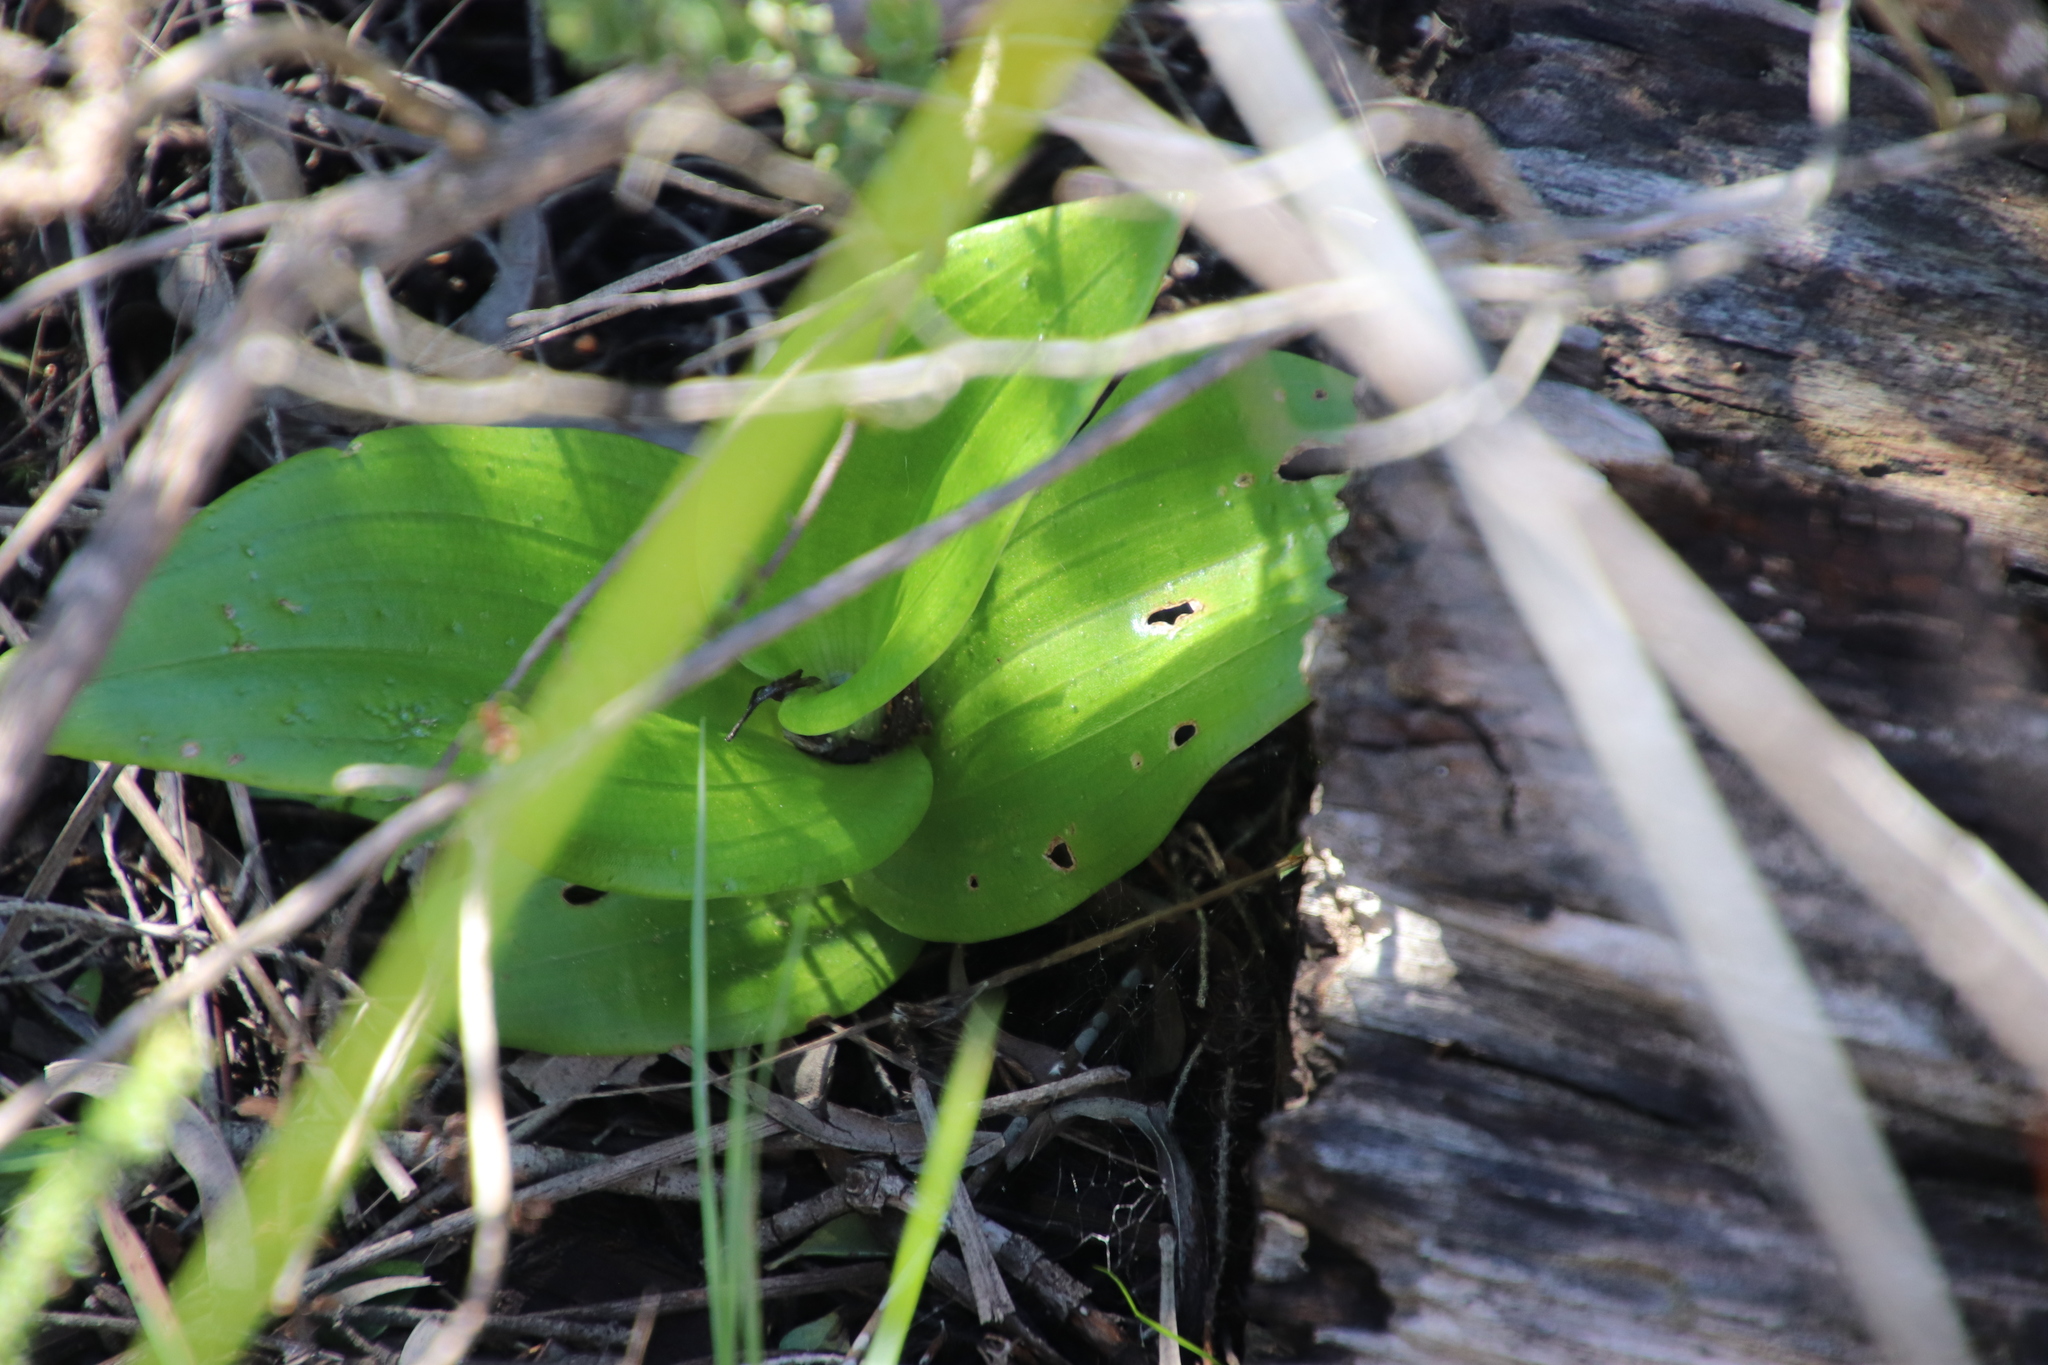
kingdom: Plantae
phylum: Tracheophyta
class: Liliopsida
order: Asparagales
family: Orchidaceae
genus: Satyrium
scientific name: Satyrium odorum
